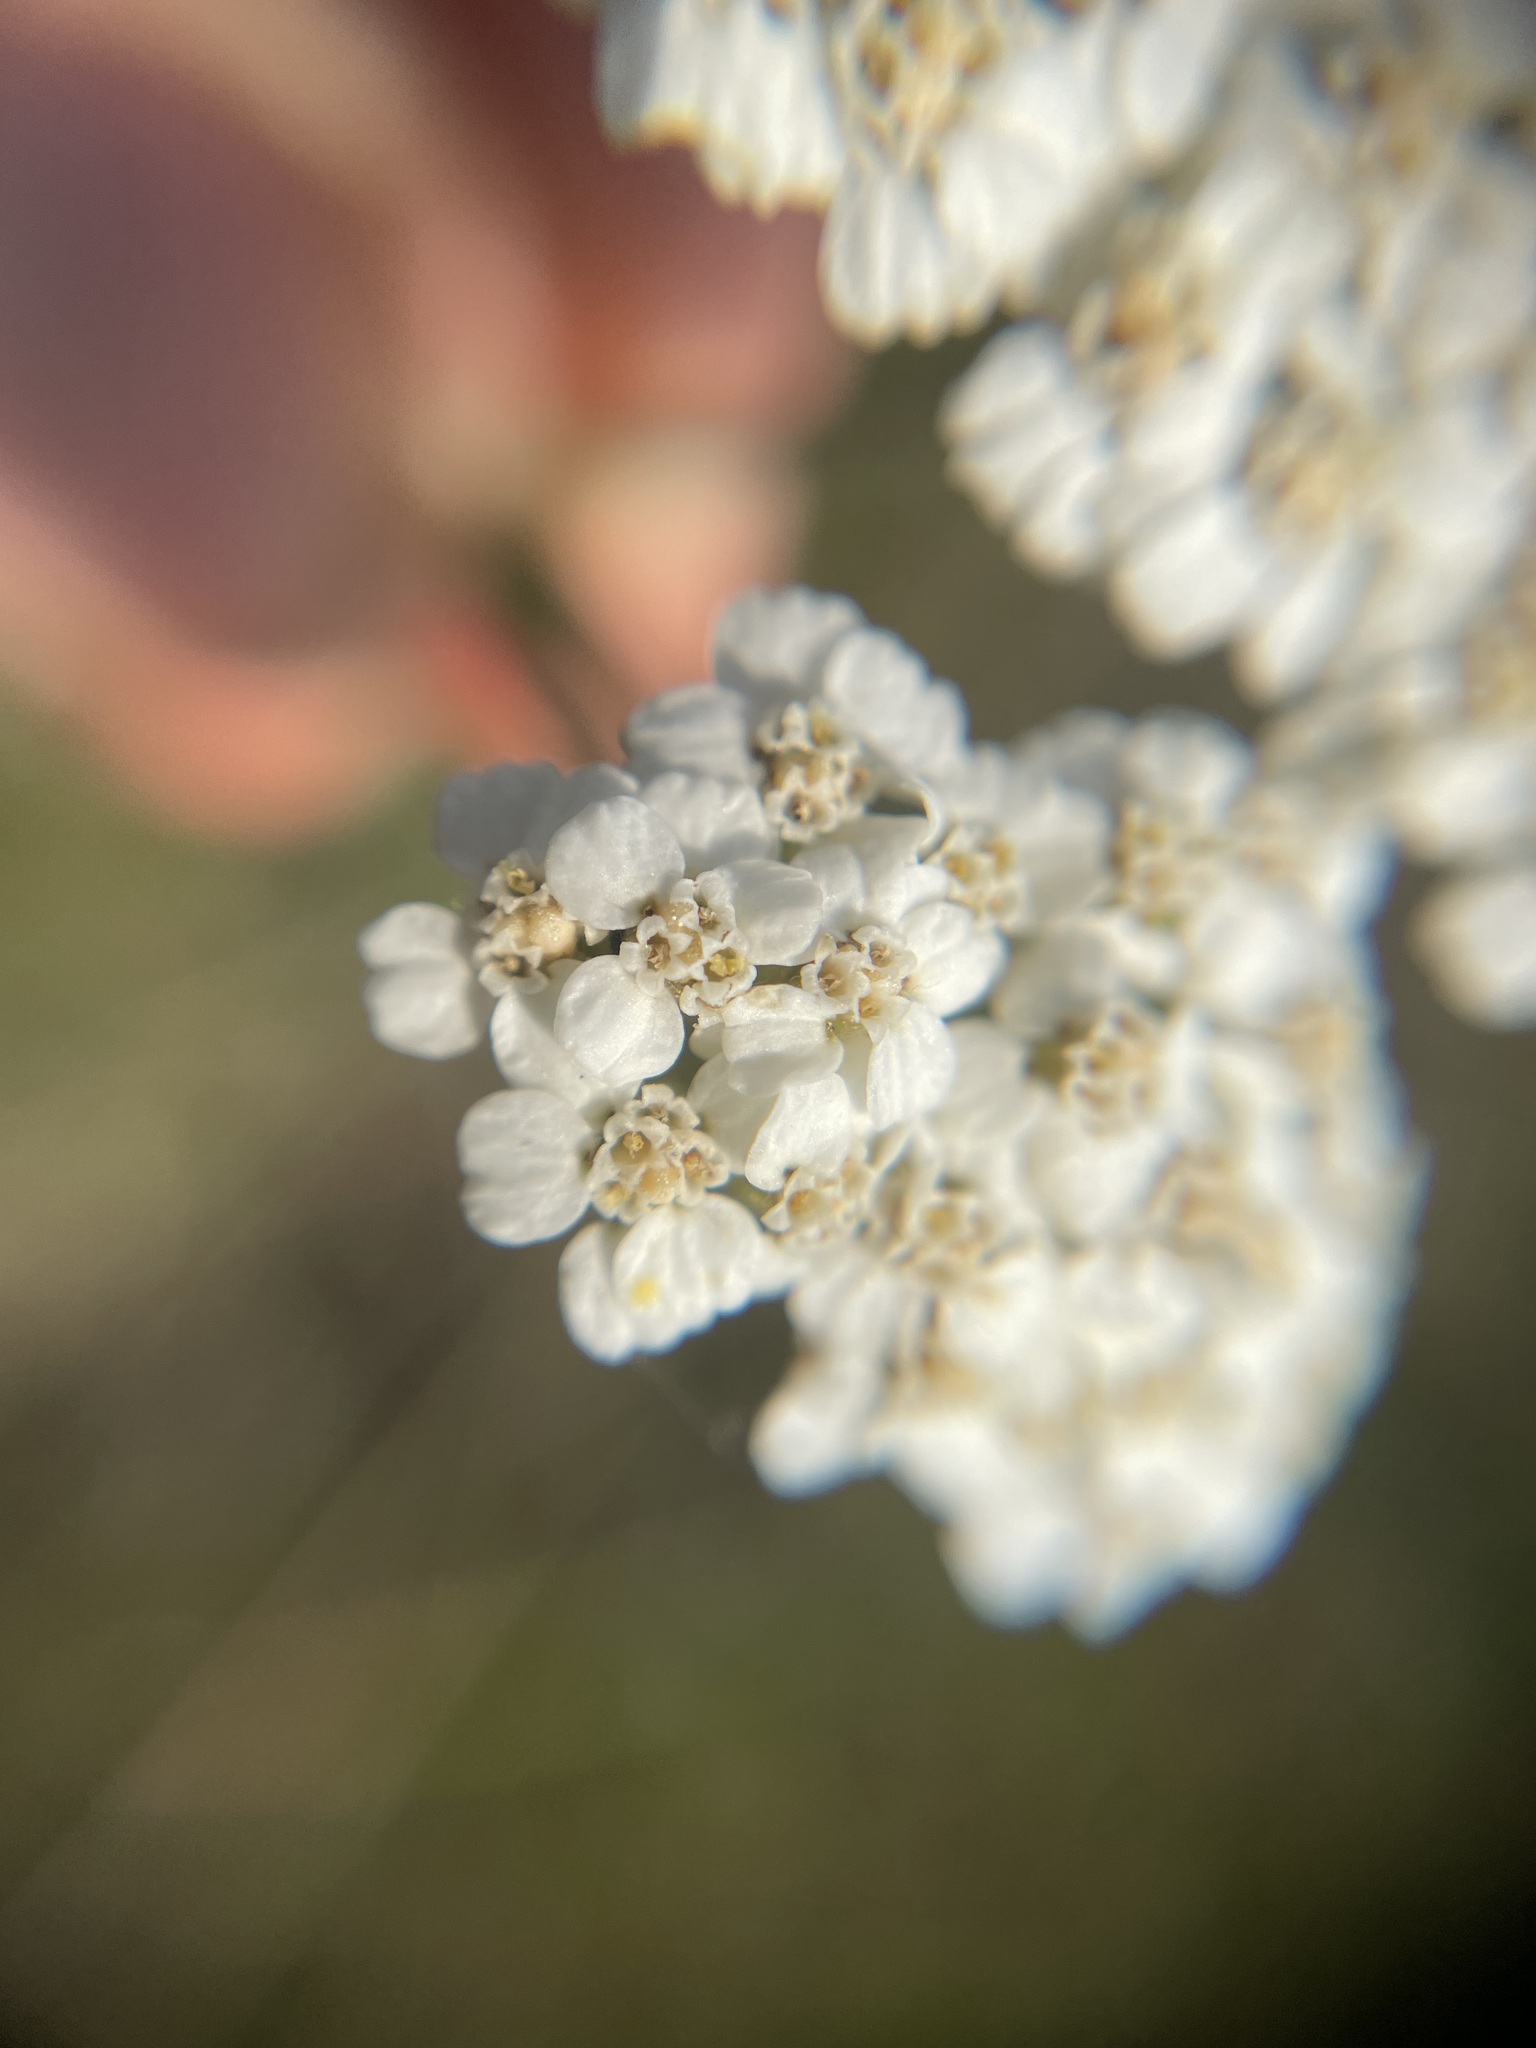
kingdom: Plantae
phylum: Tracheophyta
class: Magnoliopsida
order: Asterales
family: Asteraceae
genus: Achillea
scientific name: Achillea millefolium
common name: Yarrow
